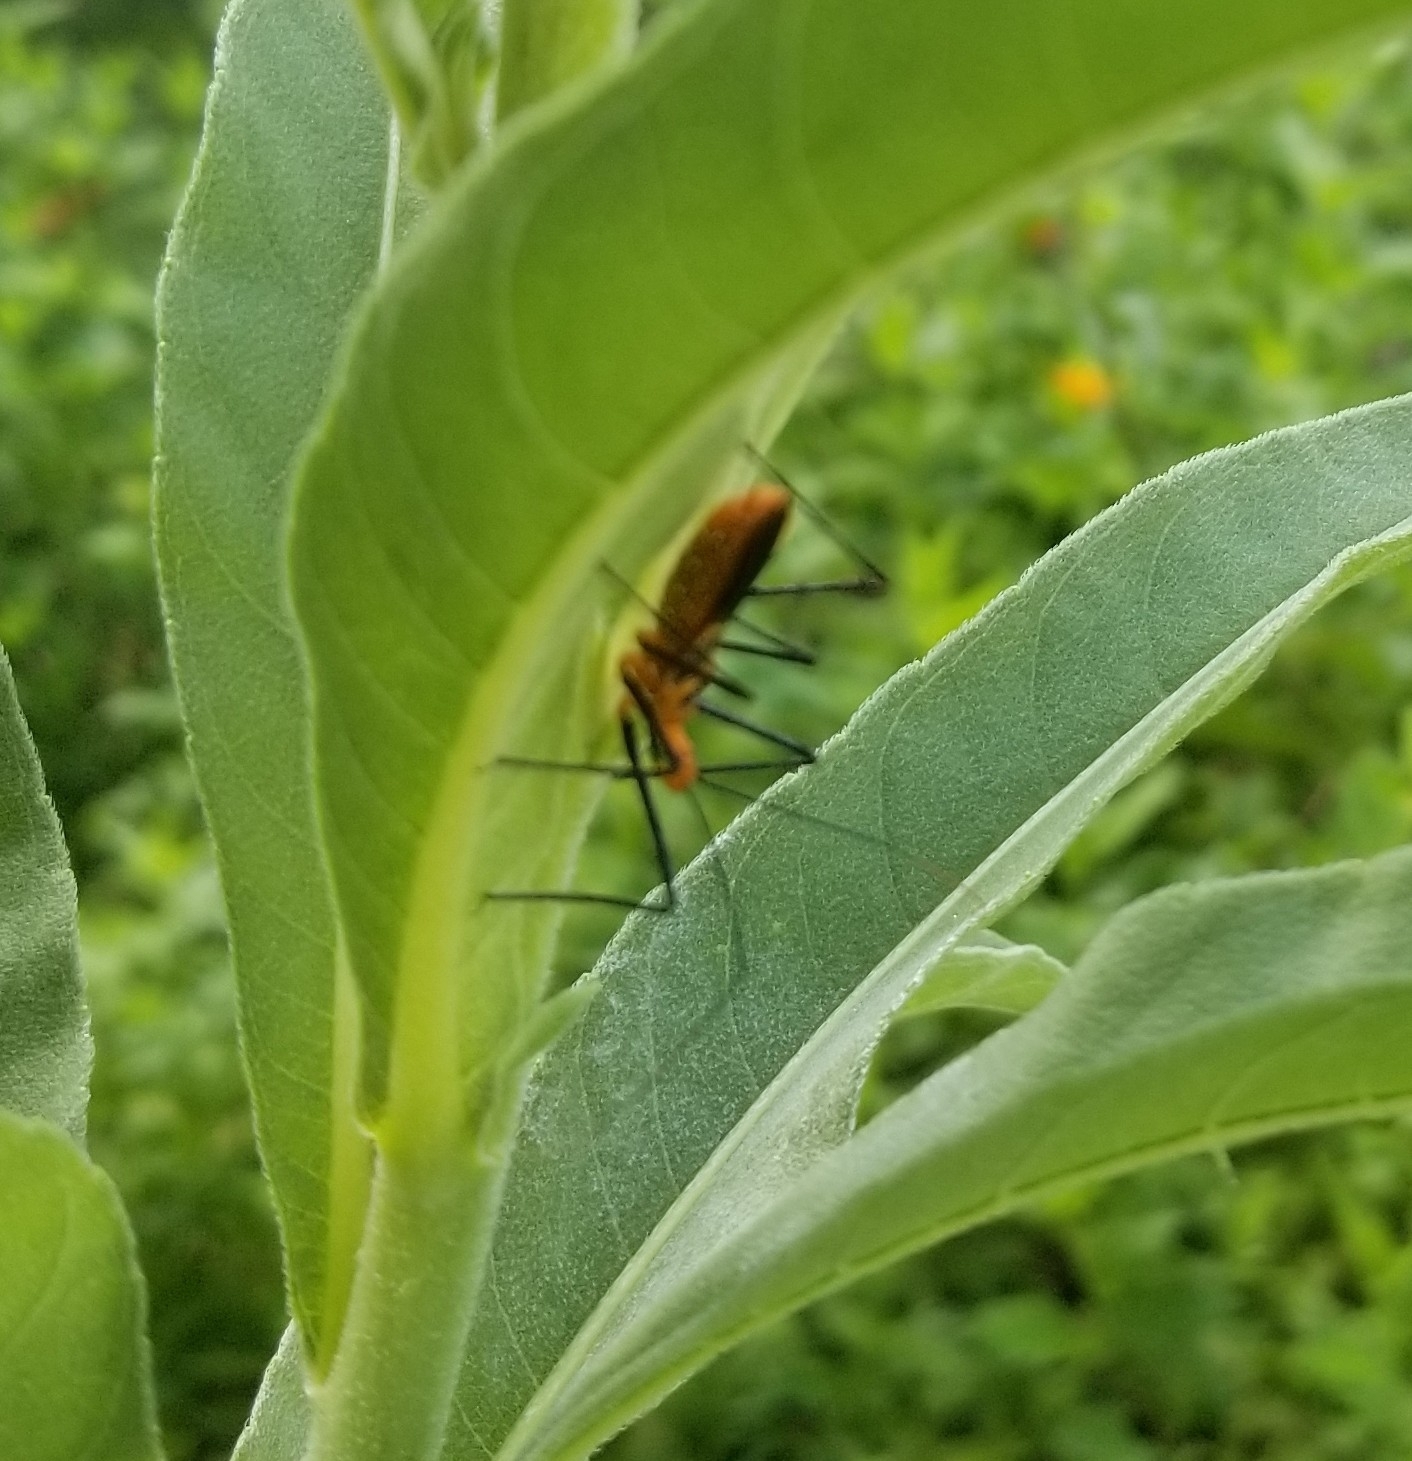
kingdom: Animalia
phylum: Arthropoda
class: Insecta
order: Hemiptera
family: Reduviidae
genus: Zelus
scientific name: Zelus longipes
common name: Milkweed assassin bug
